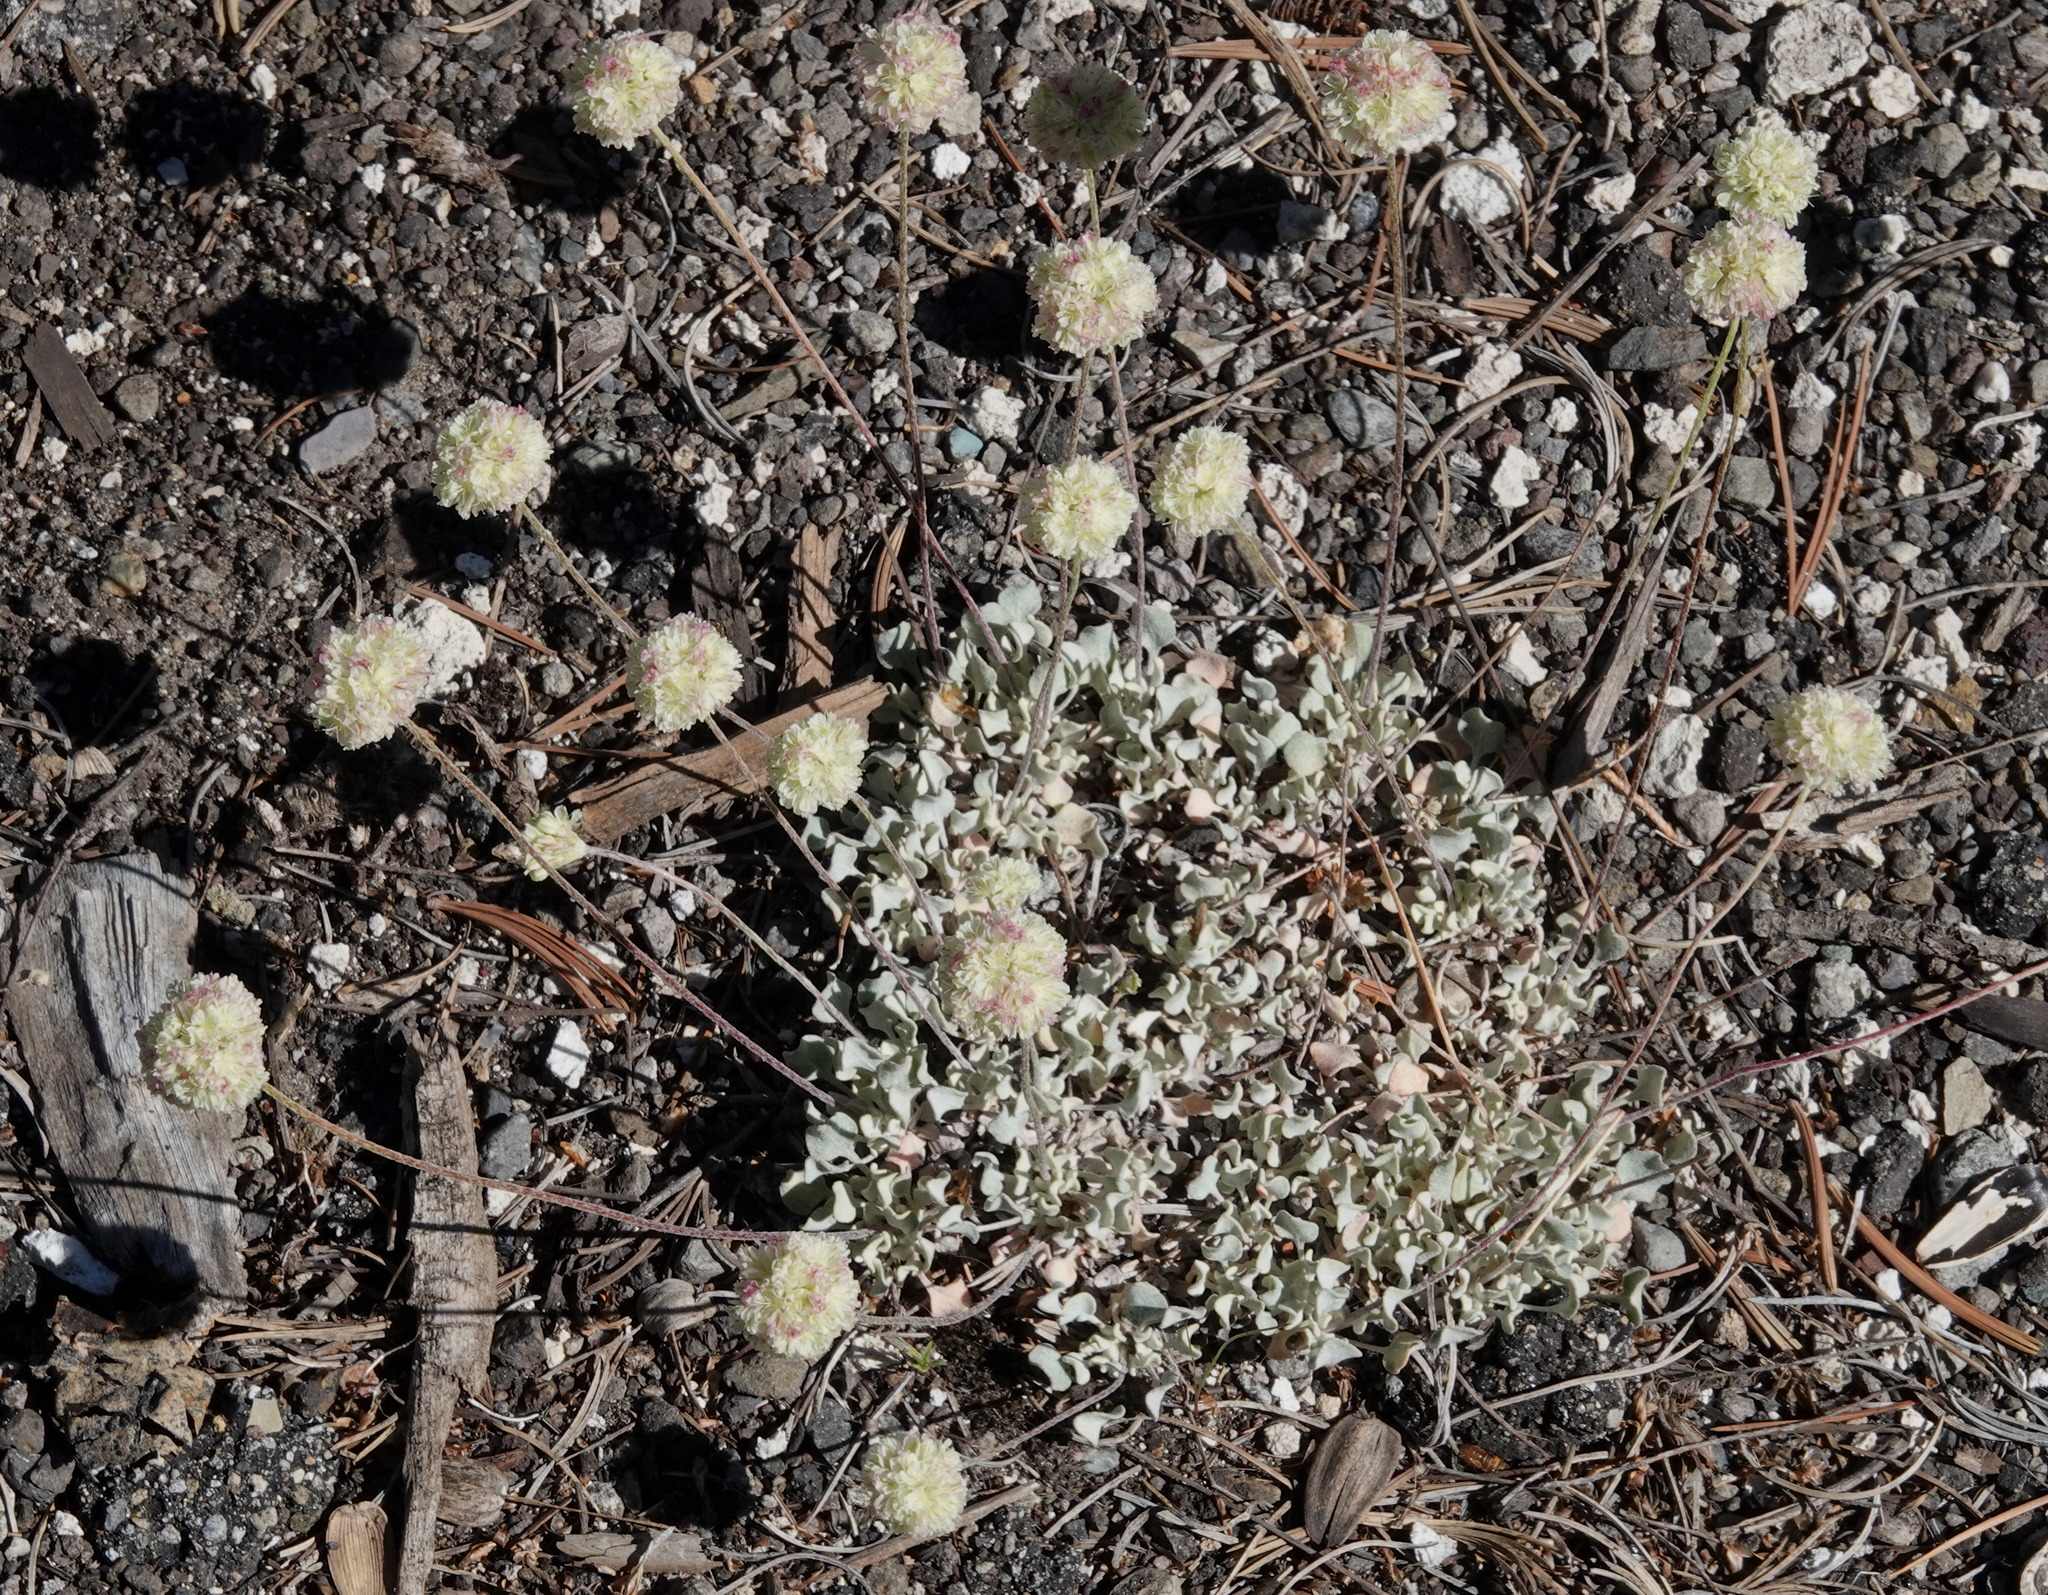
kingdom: Plantae
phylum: Tracheophyta
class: Magnoliopsida
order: Caryophyllales
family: Polygonaceae
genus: Eriogonum
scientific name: Eriogonum ovalifolium
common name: Cushion buckwheat
